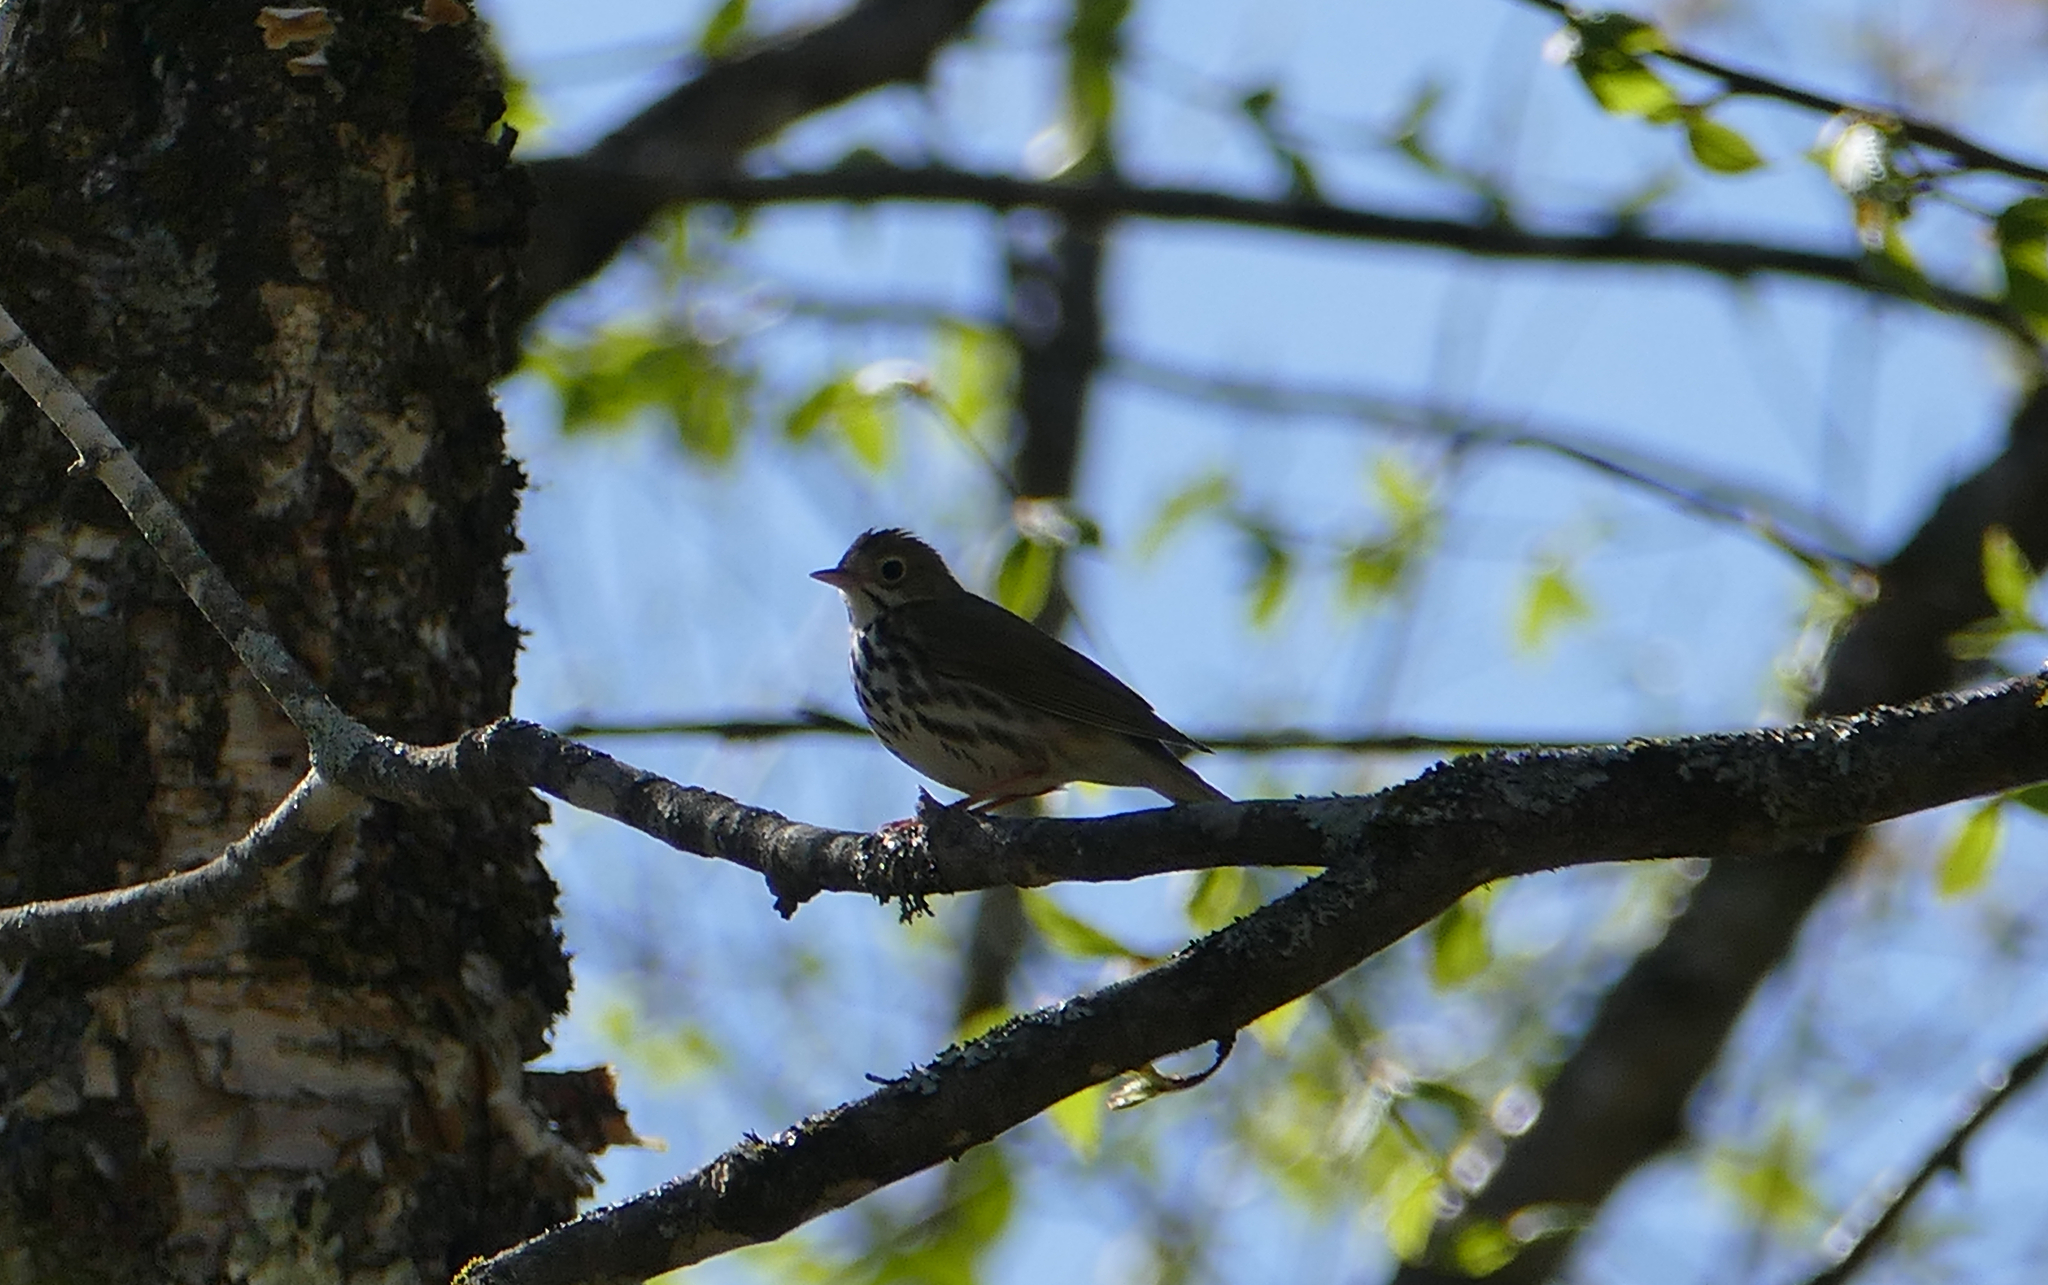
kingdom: Animalia
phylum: Chordata
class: Aves
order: Passeriformes
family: Parulidae
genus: Seiurus
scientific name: Seiurus aurocapilla
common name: Ovenbird
